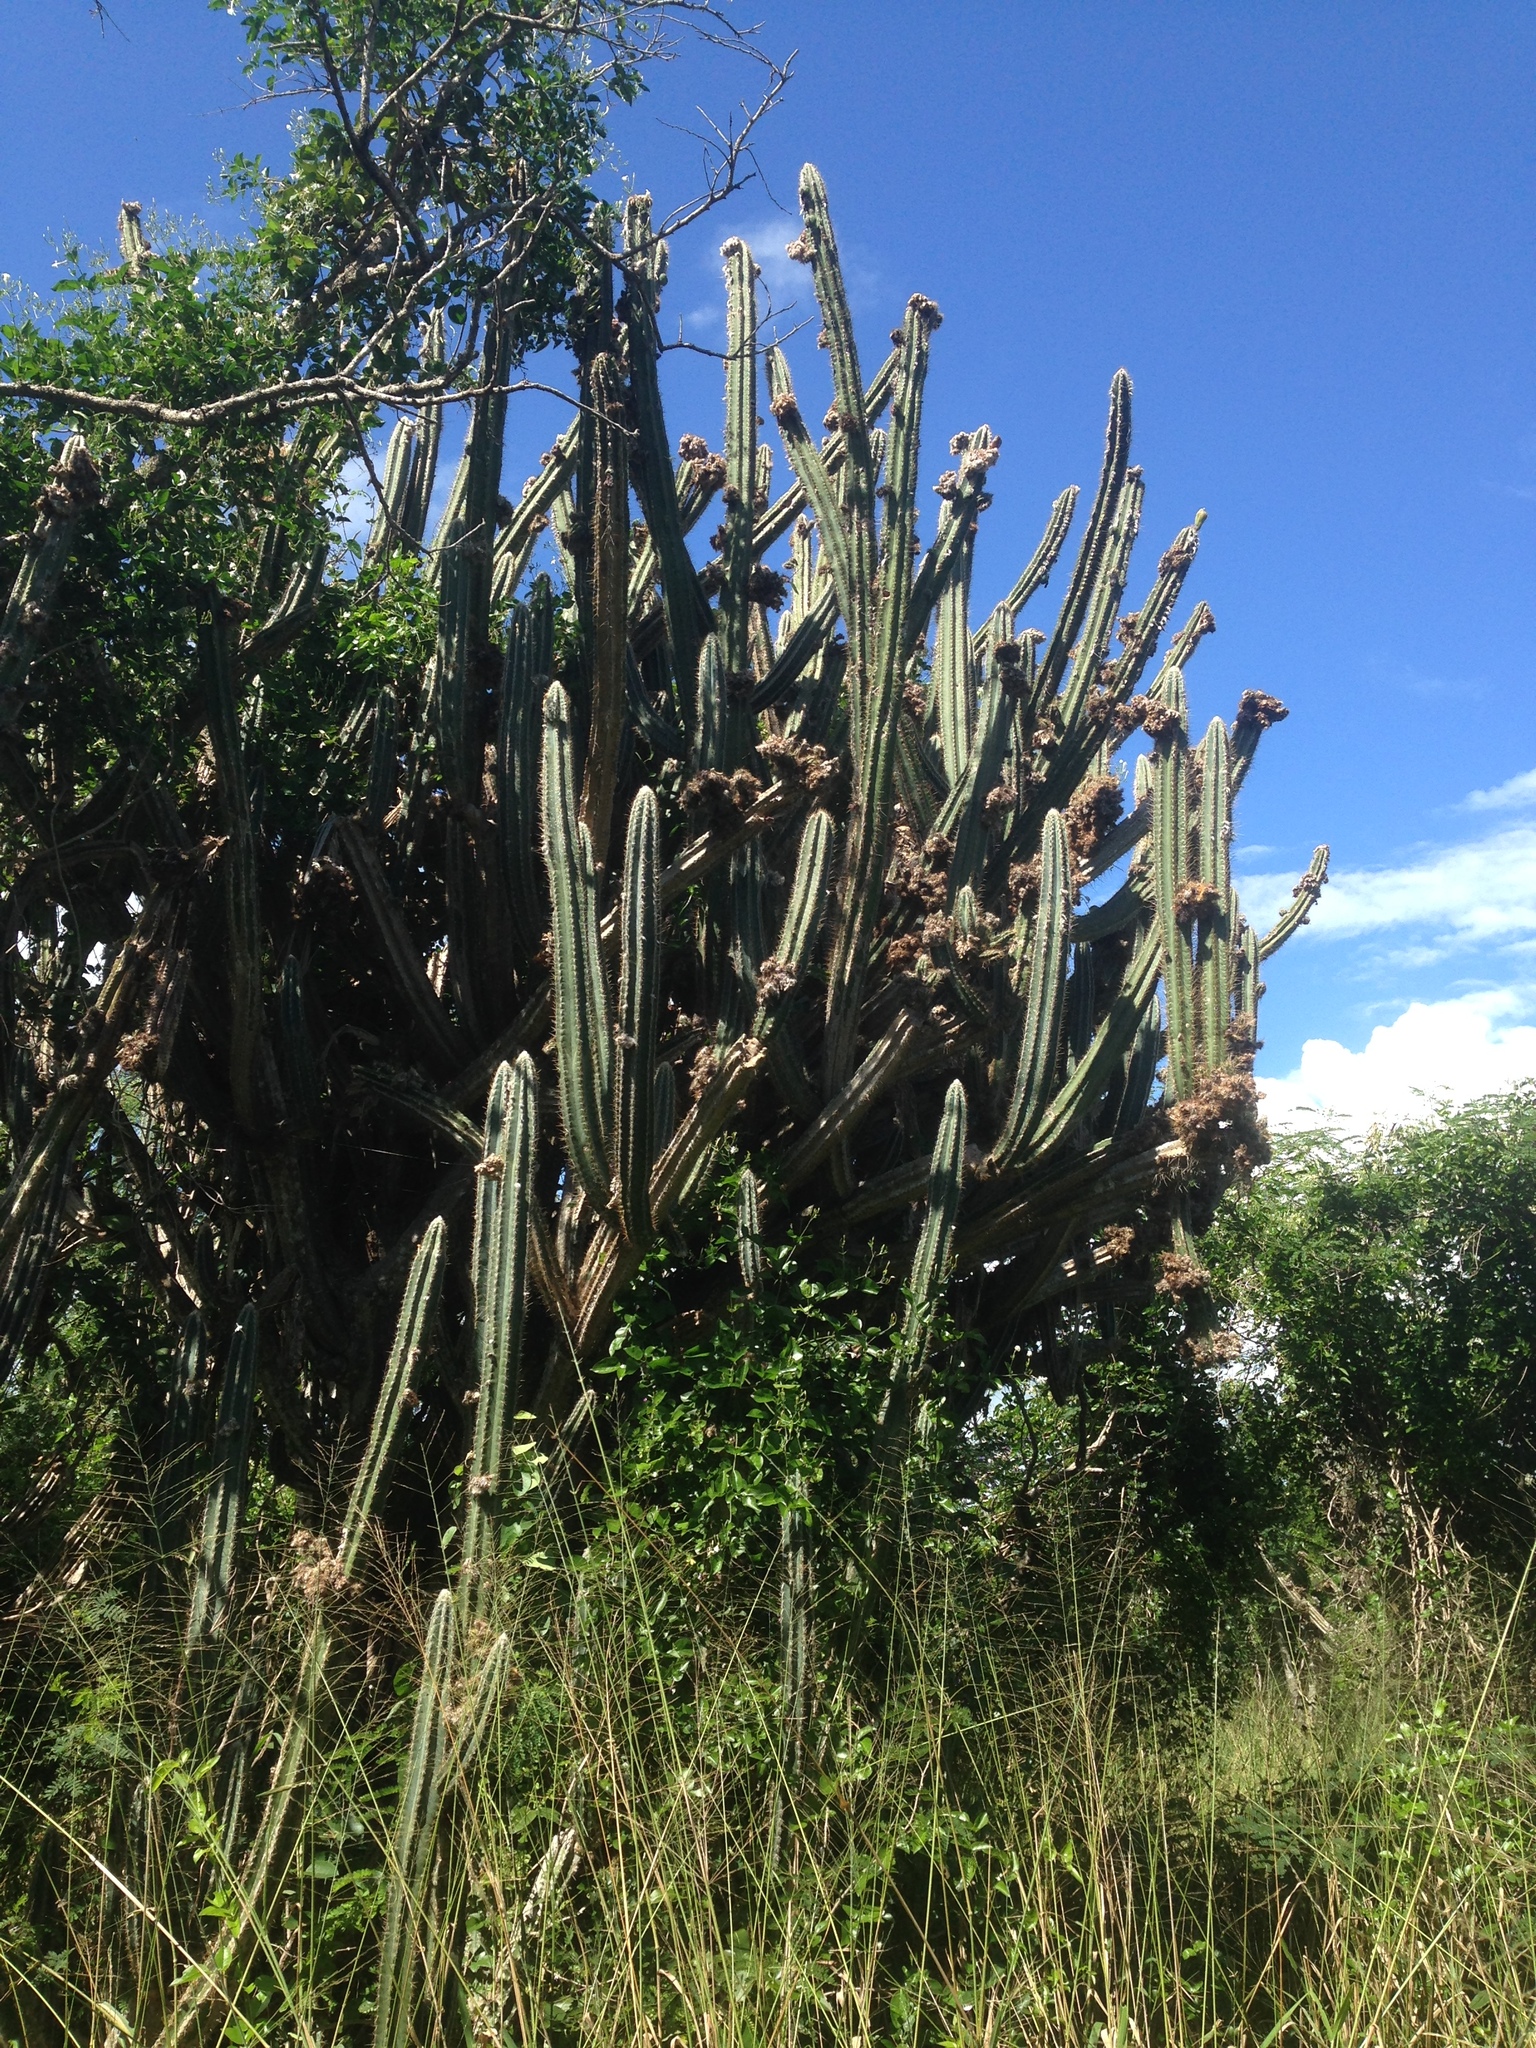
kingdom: Plantae
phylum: Tracheophyta
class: Magnoliopsida
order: Caryophyllales
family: Cactaceae
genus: Pilosocereus
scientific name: Pilosocereus armatus
